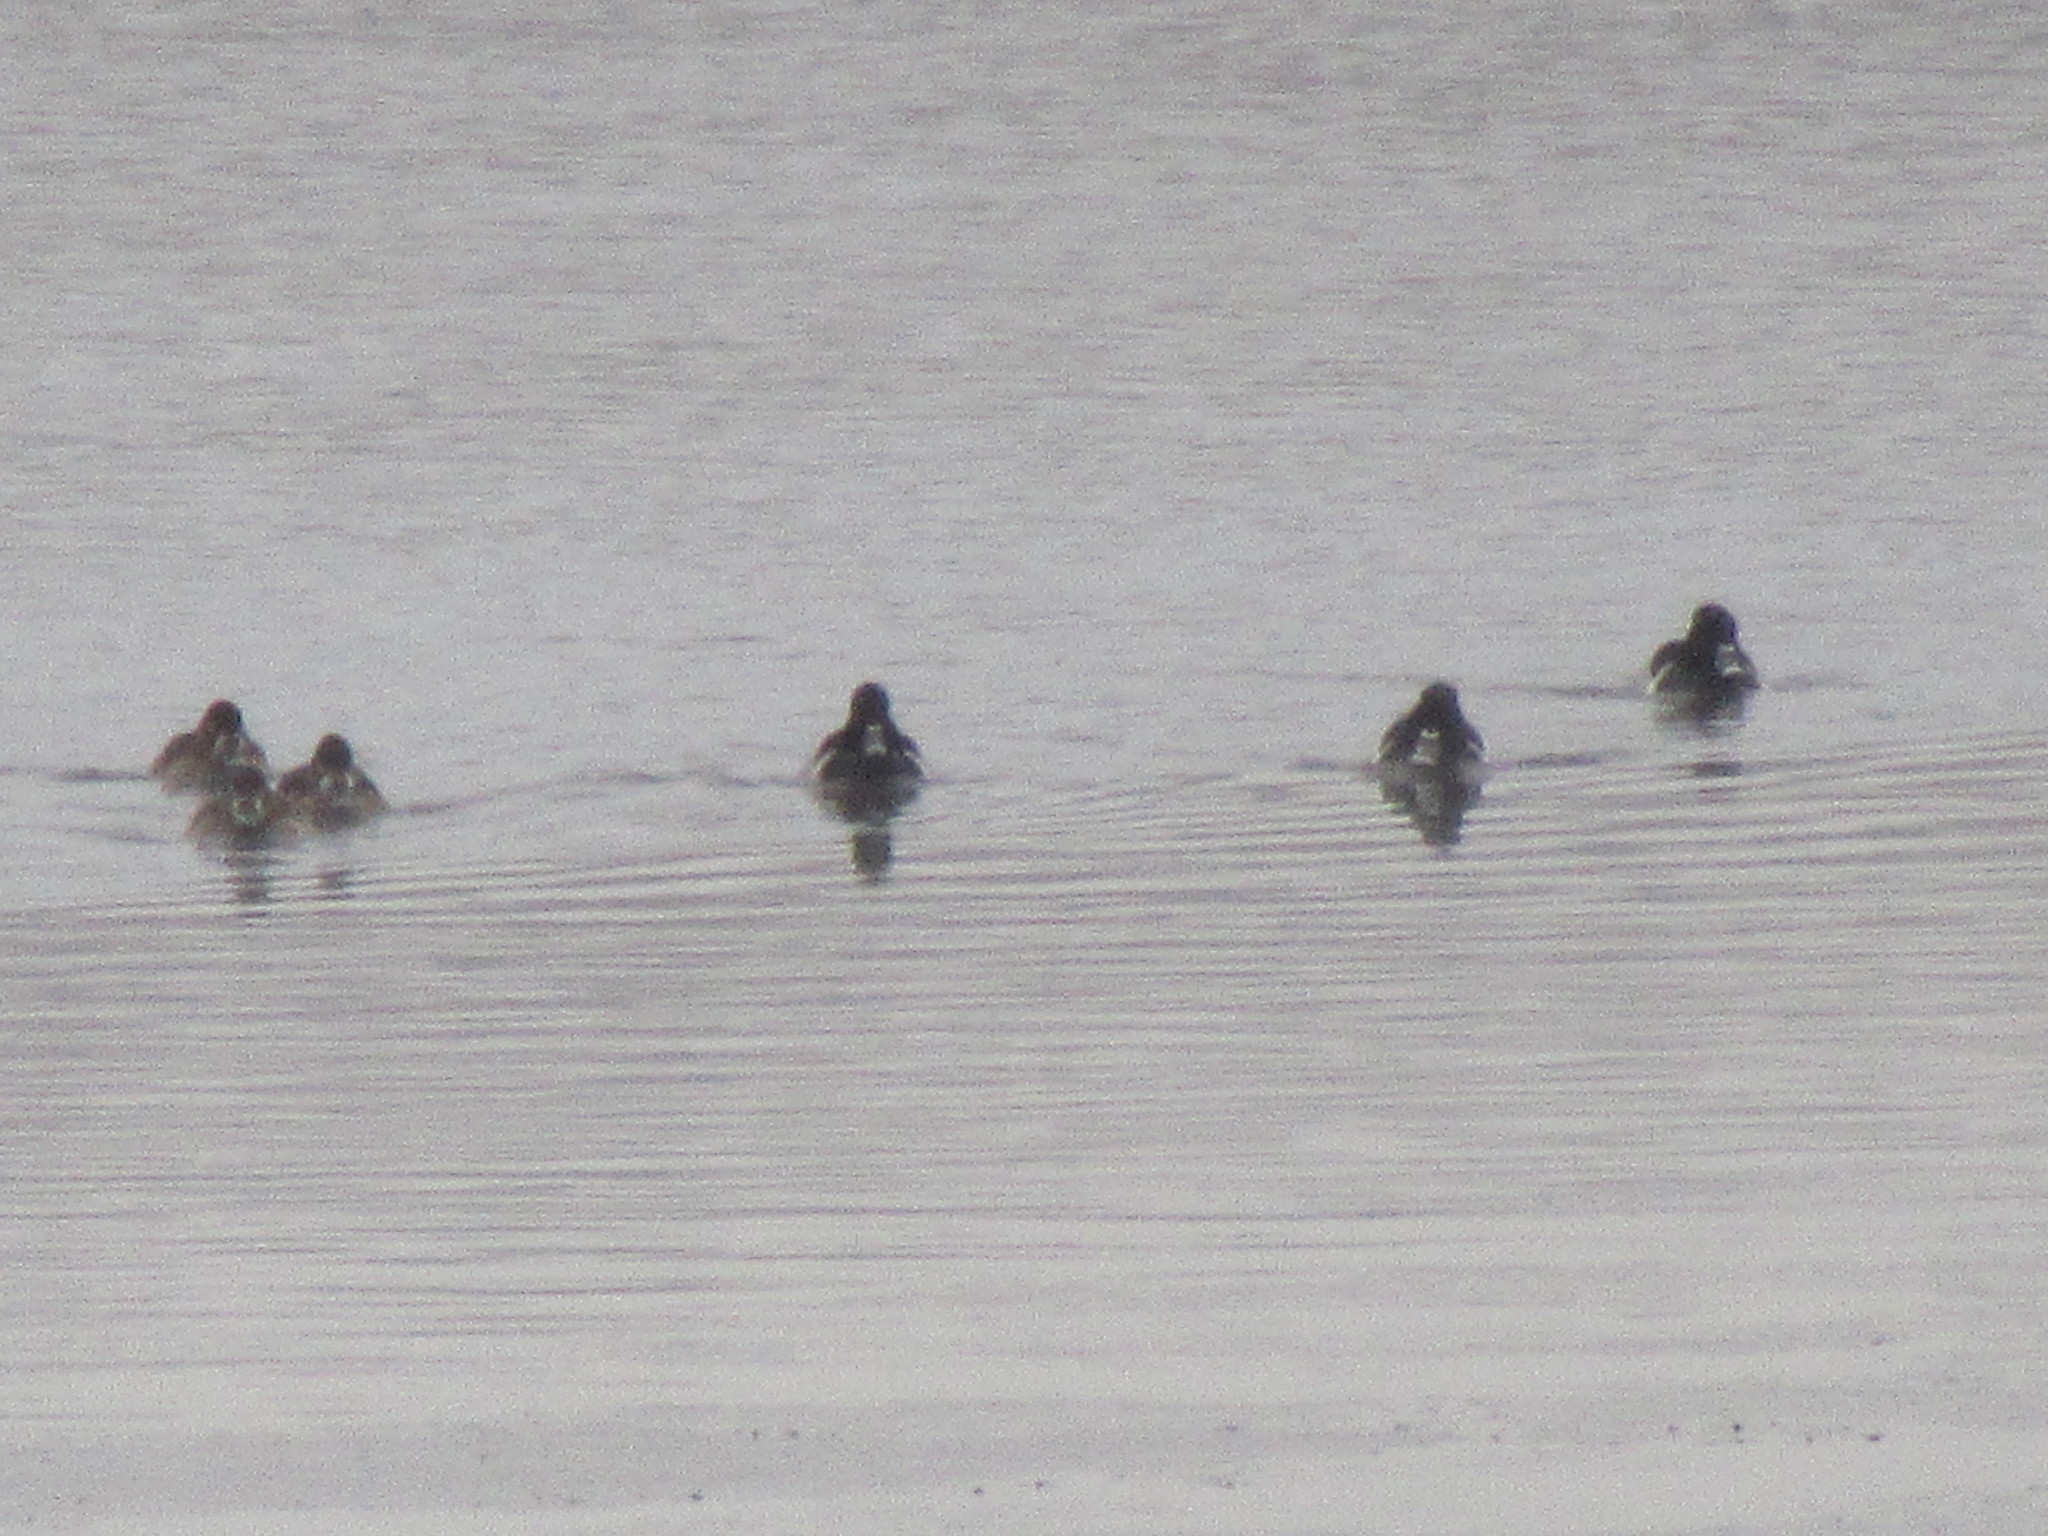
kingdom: Animalia
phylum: Chordata
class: Aves
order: Anseriformes
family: Anatidae
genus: Aythya
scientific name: Aythya collaris
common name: Ring-necked duck
